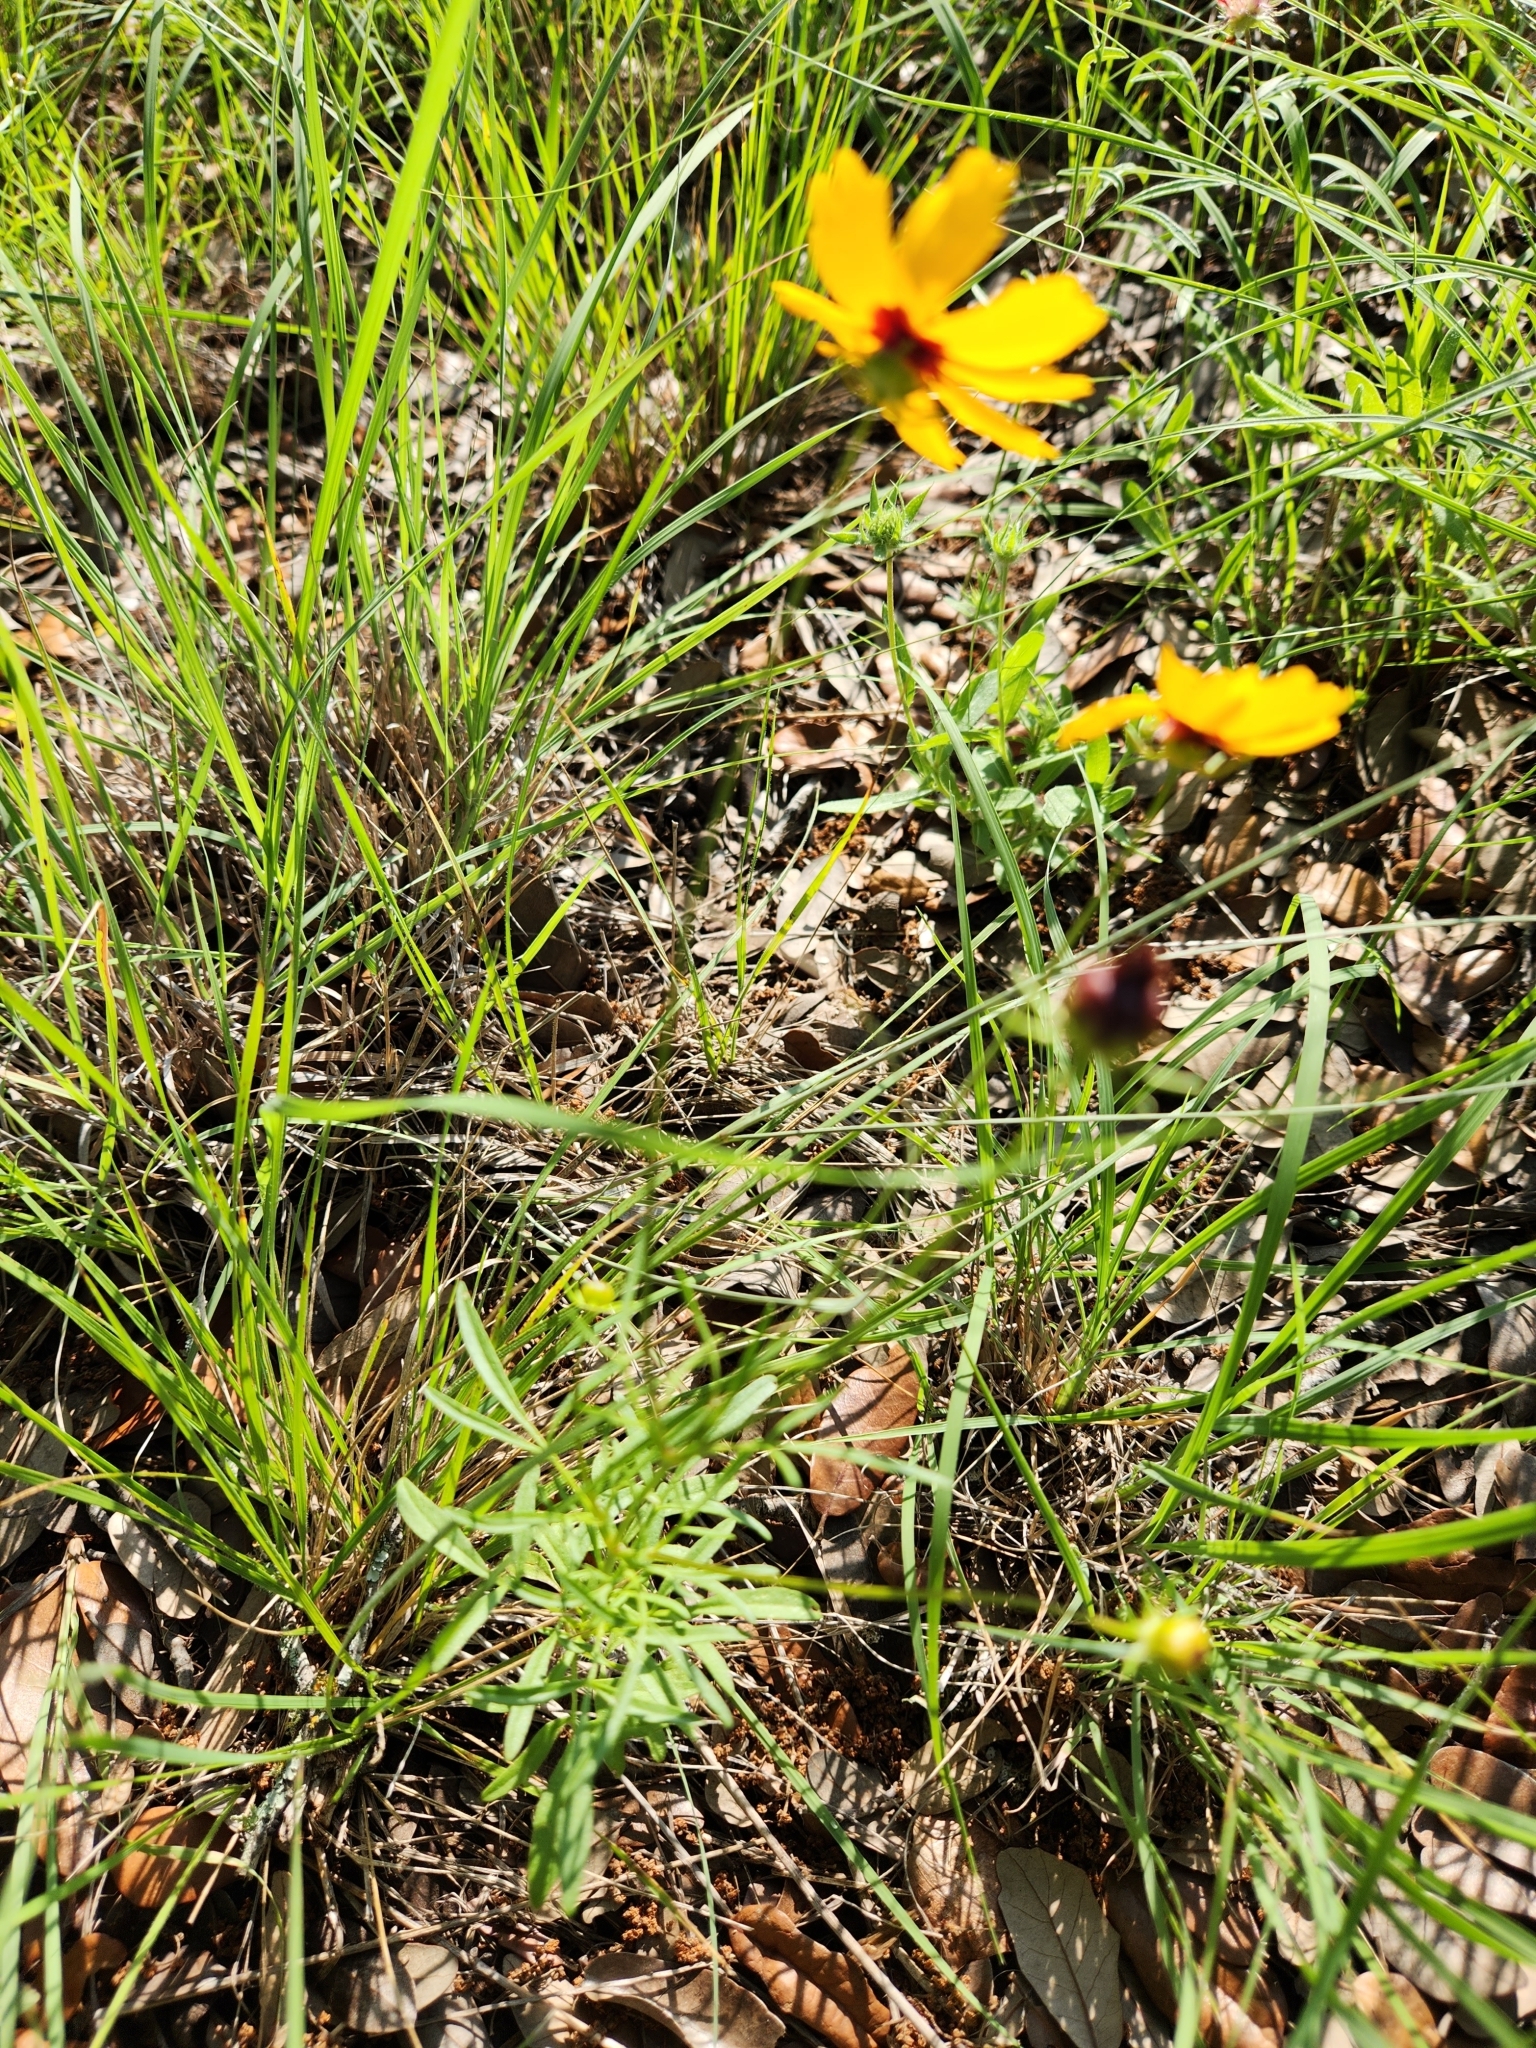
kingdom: Plantae
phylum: Tracheophyta
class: Magnoliopsida
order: Asterales
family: Asteraceae
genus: Coreopsis
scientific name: Coreopsis basalis
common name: Golden-mane coreopsis
